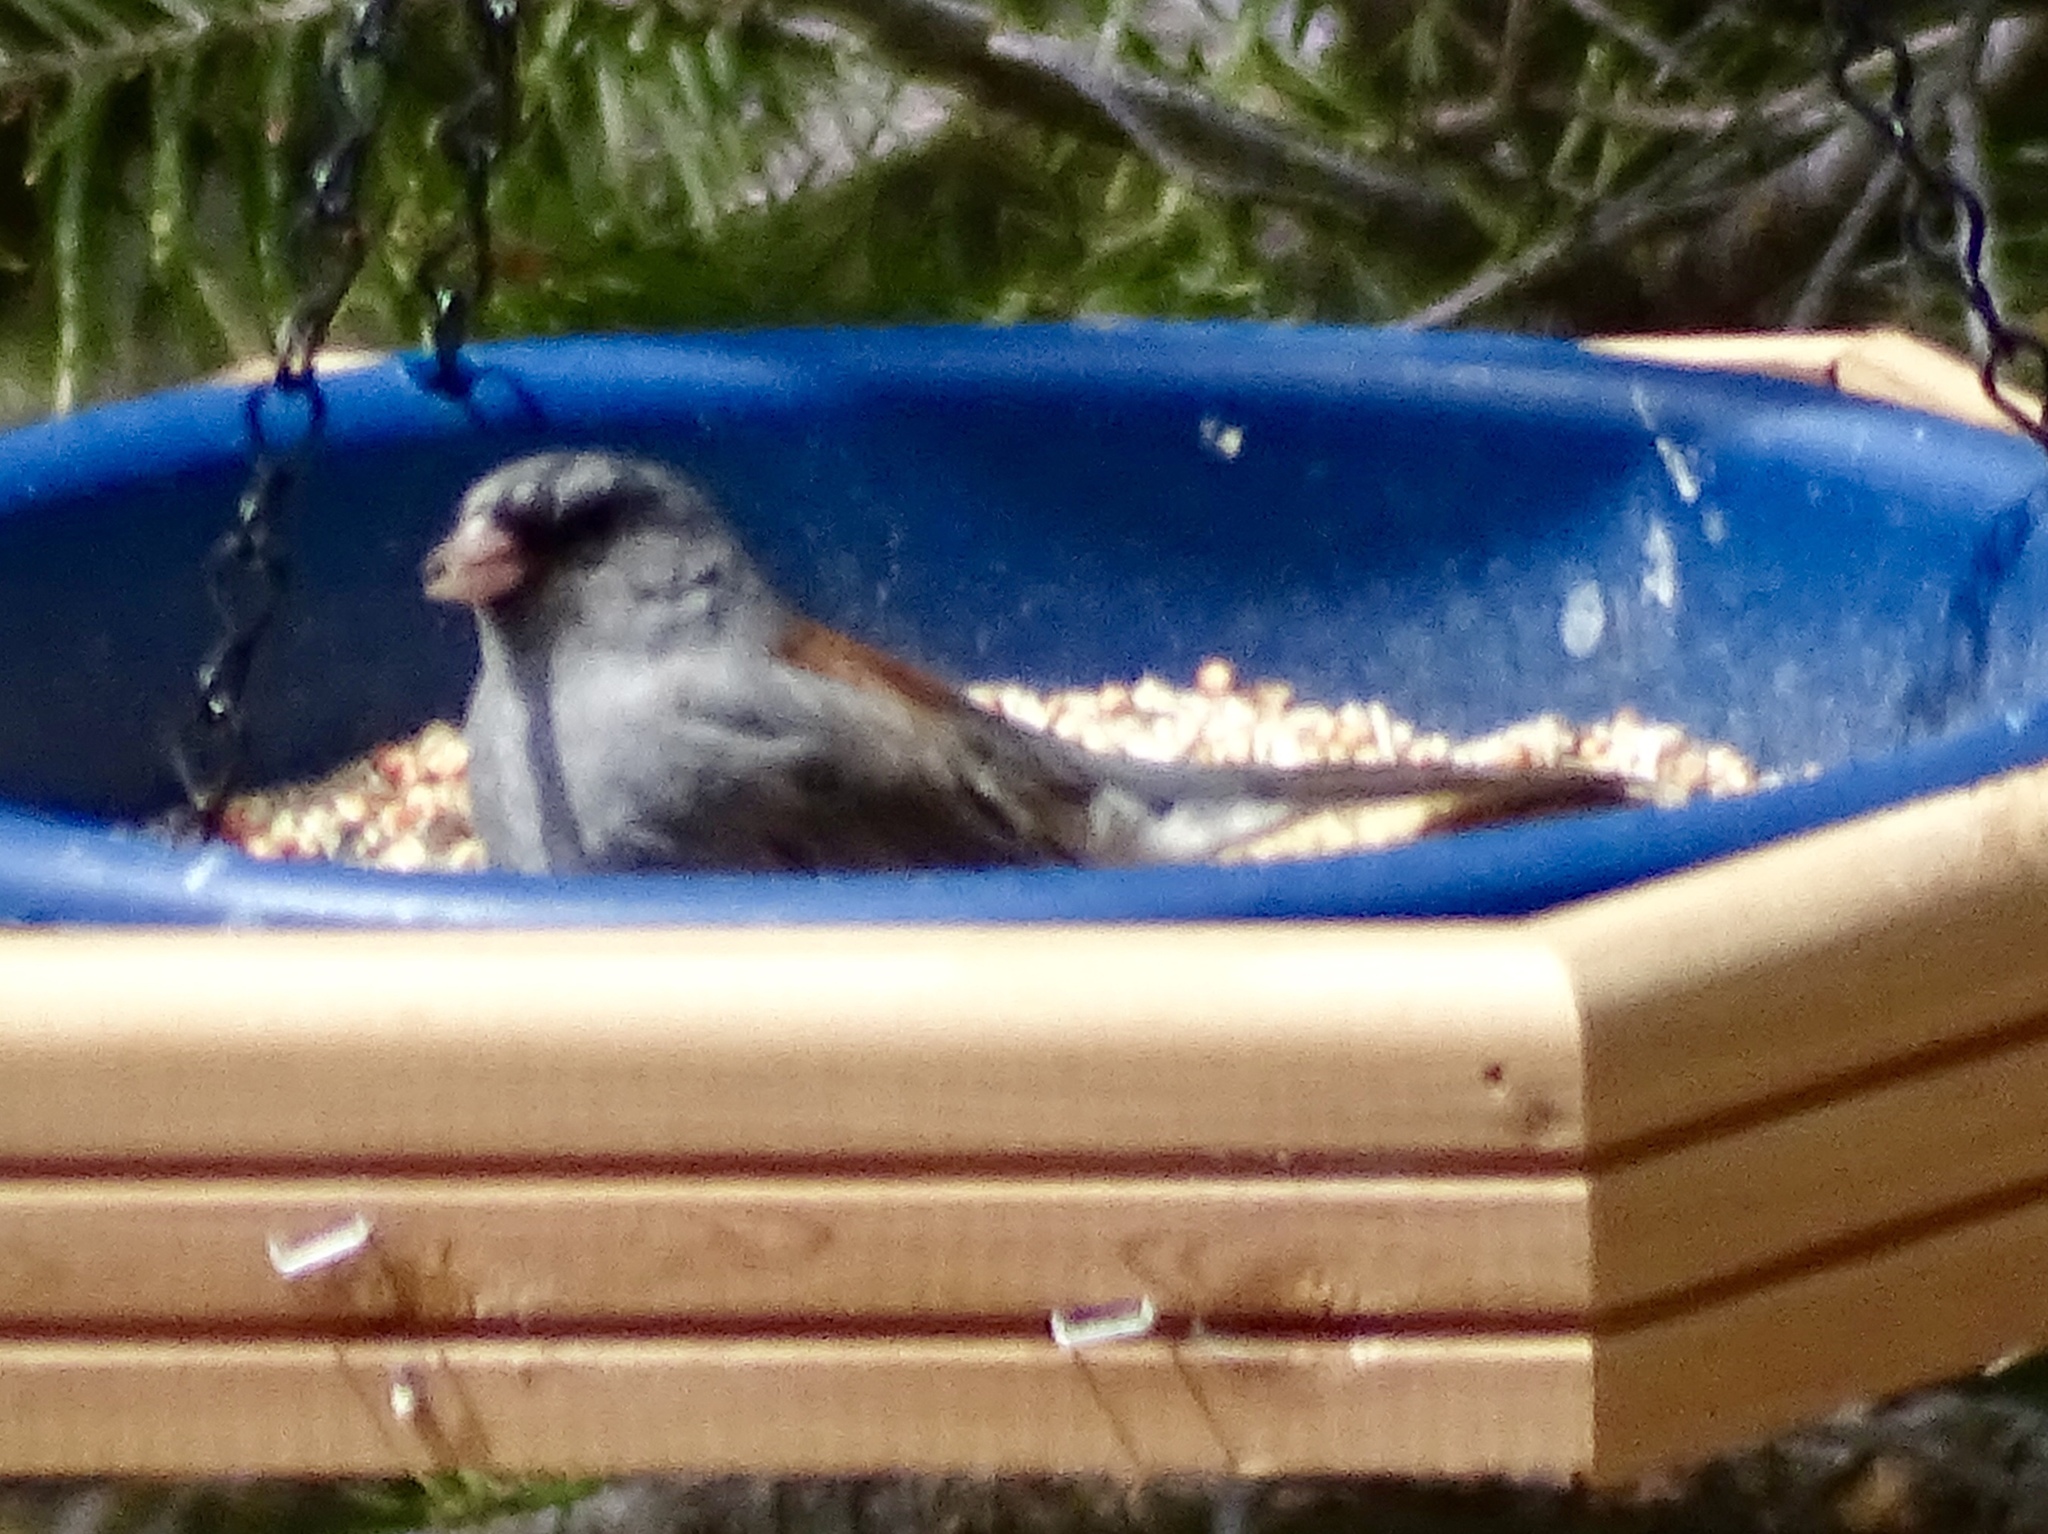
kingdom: Animalia
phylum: Chordata
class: Aves
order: Passeriformes
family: Passerellidae
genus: Junco
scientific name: Junco hyemalis
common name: Dark-eyed junco
